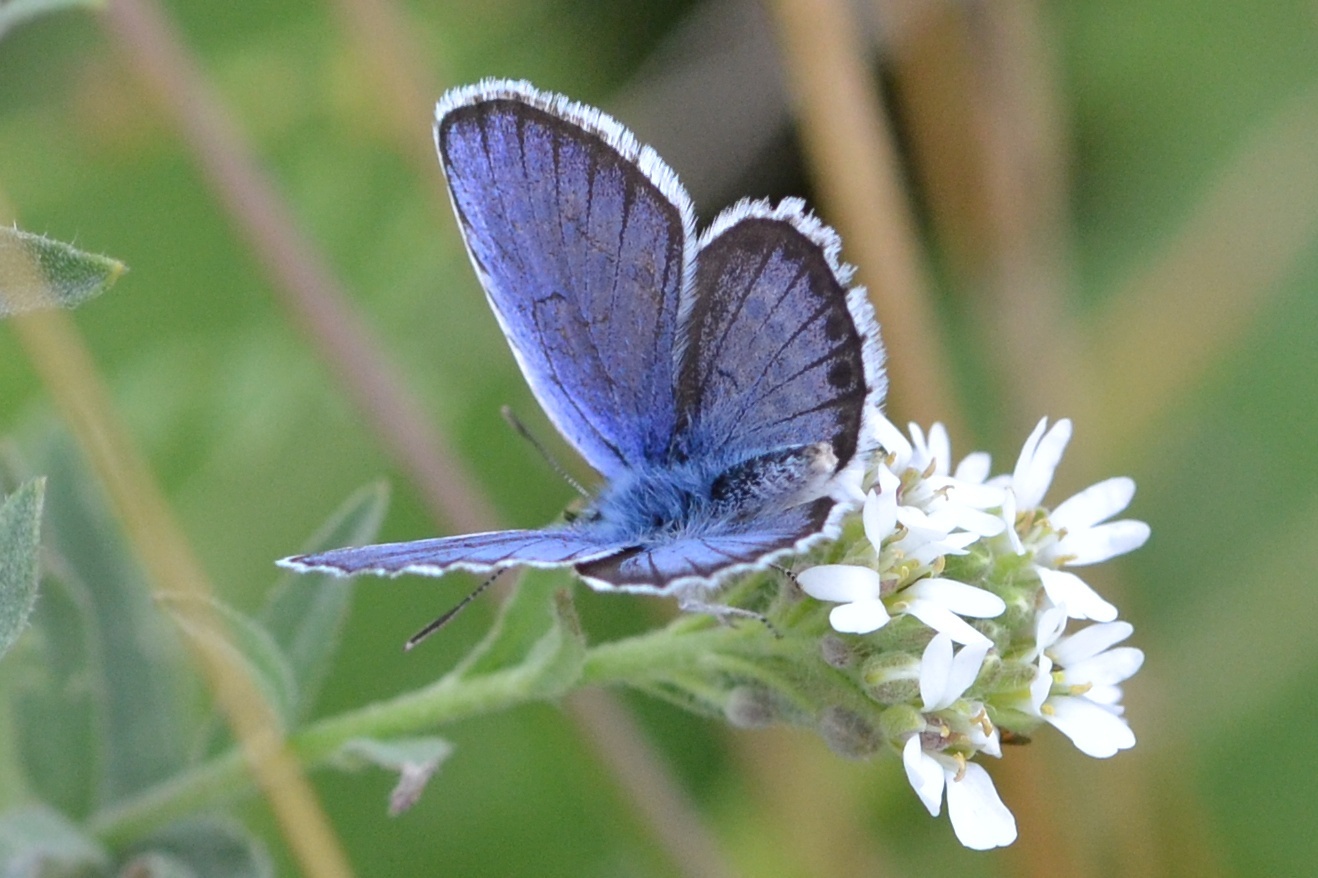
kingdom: Animalia
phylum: Arthropoda
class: Insecta
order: Lepidoptera
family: Lycaenidae
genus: Plebejus
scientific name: Plebejus argyrognomon
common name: Reverdin's blue
